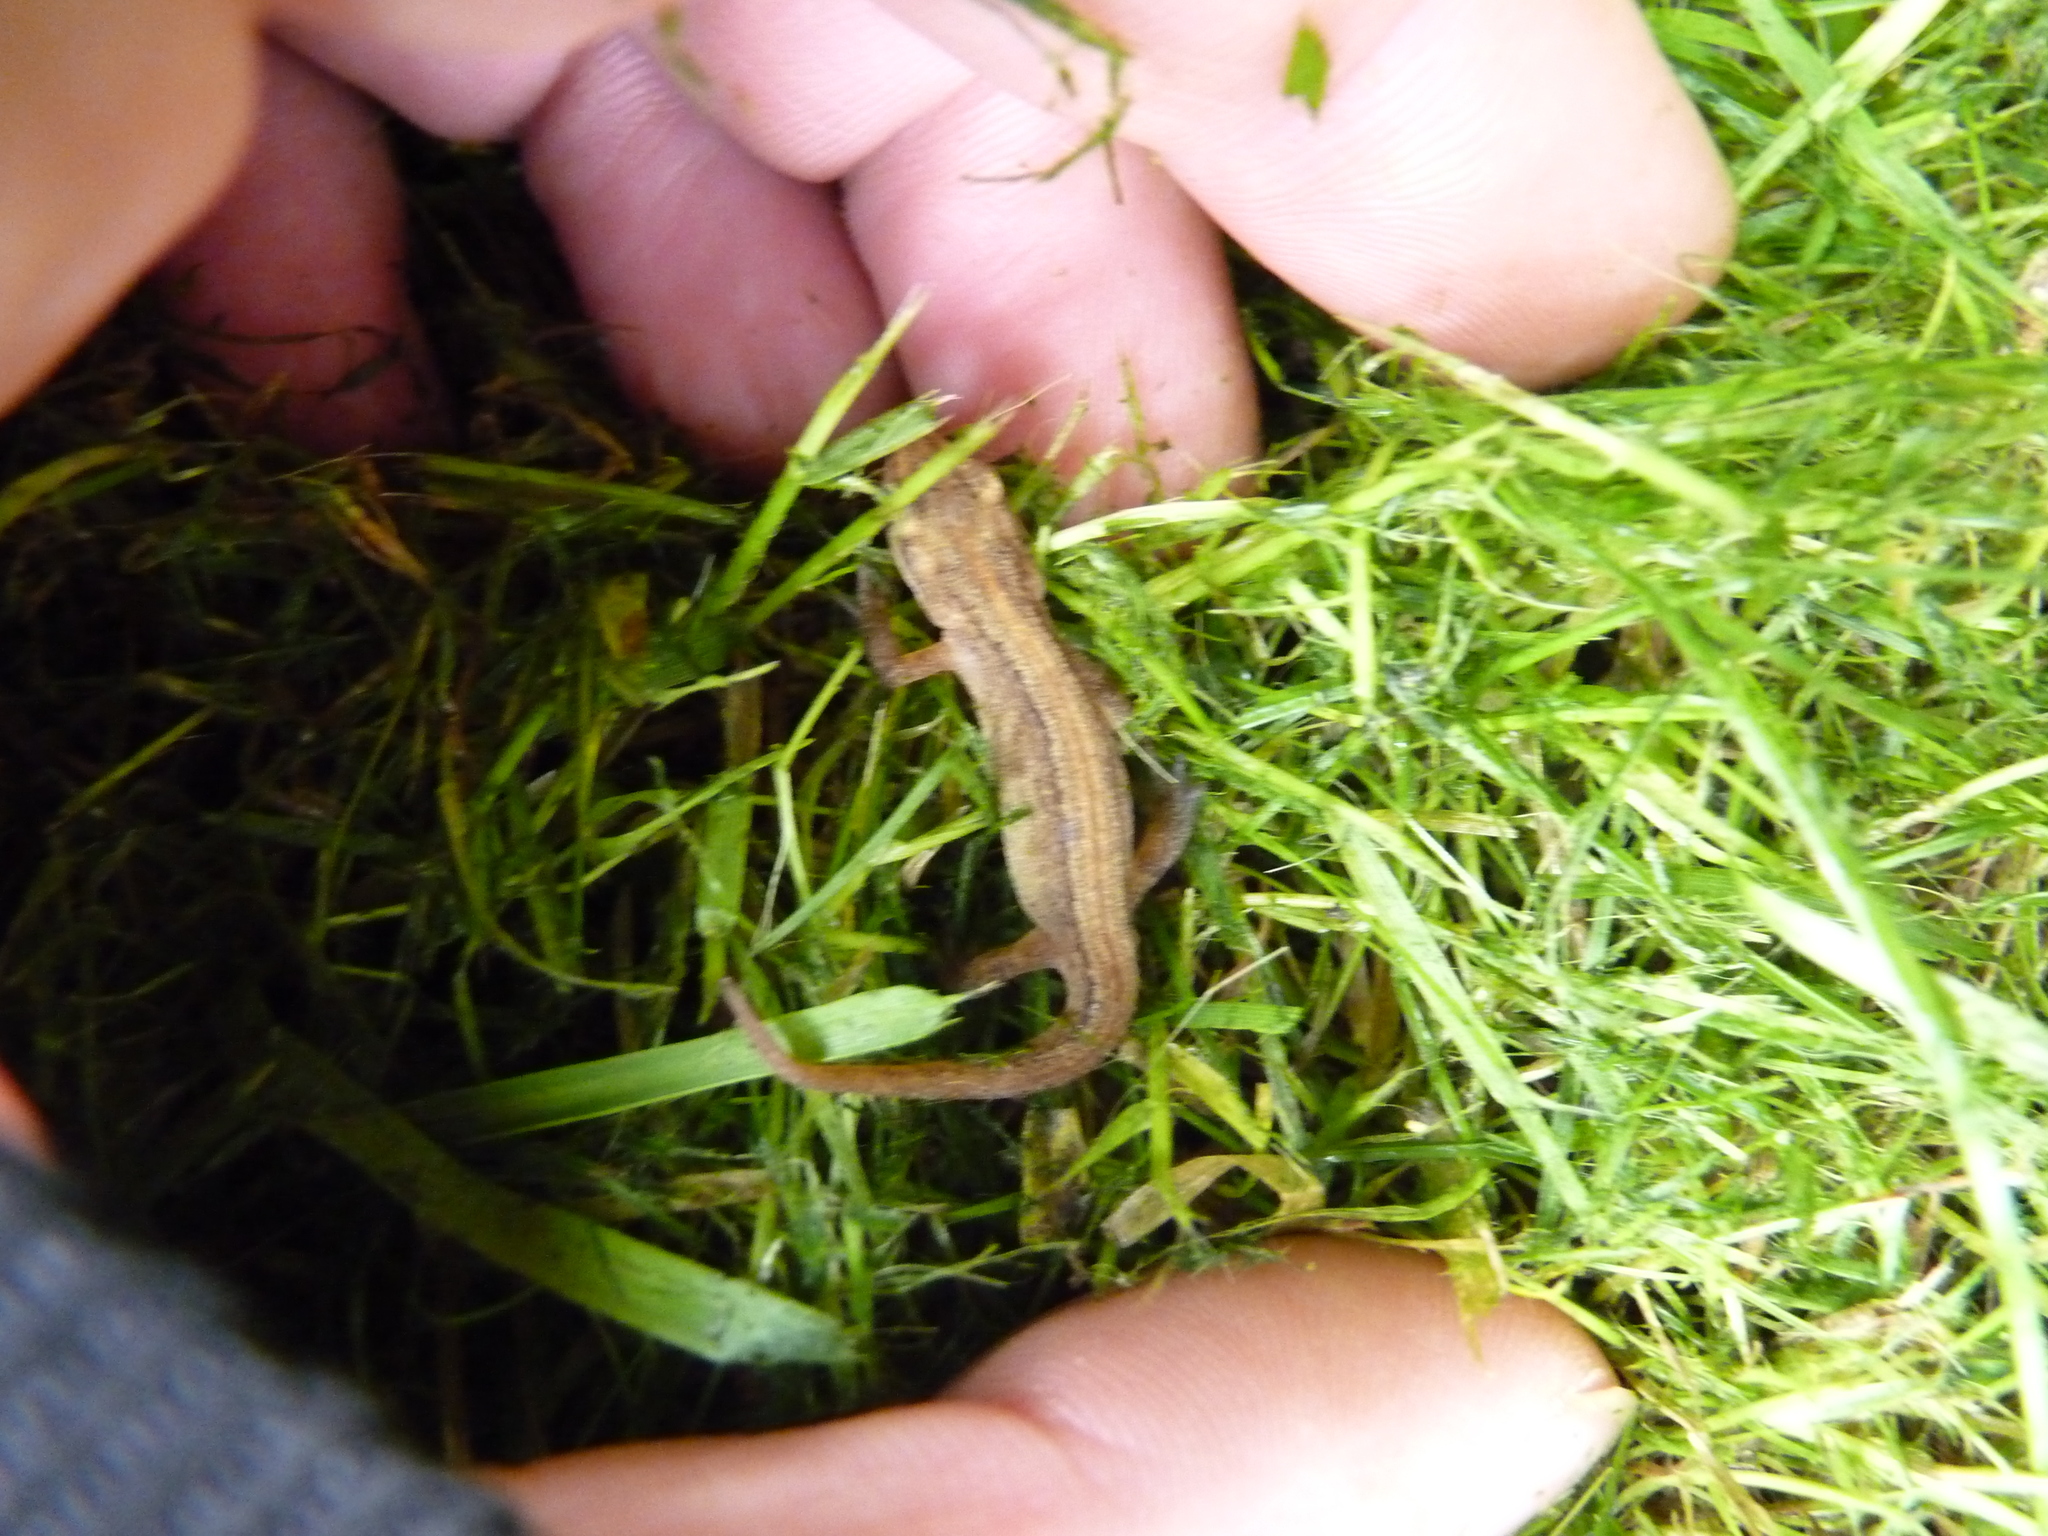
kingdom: Animalia
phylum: Chordata
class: Amphibia
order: Caudata
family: Salamandridae
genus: Lissotriton
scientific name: Lissotriton vulgaris
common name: Smooth newt
